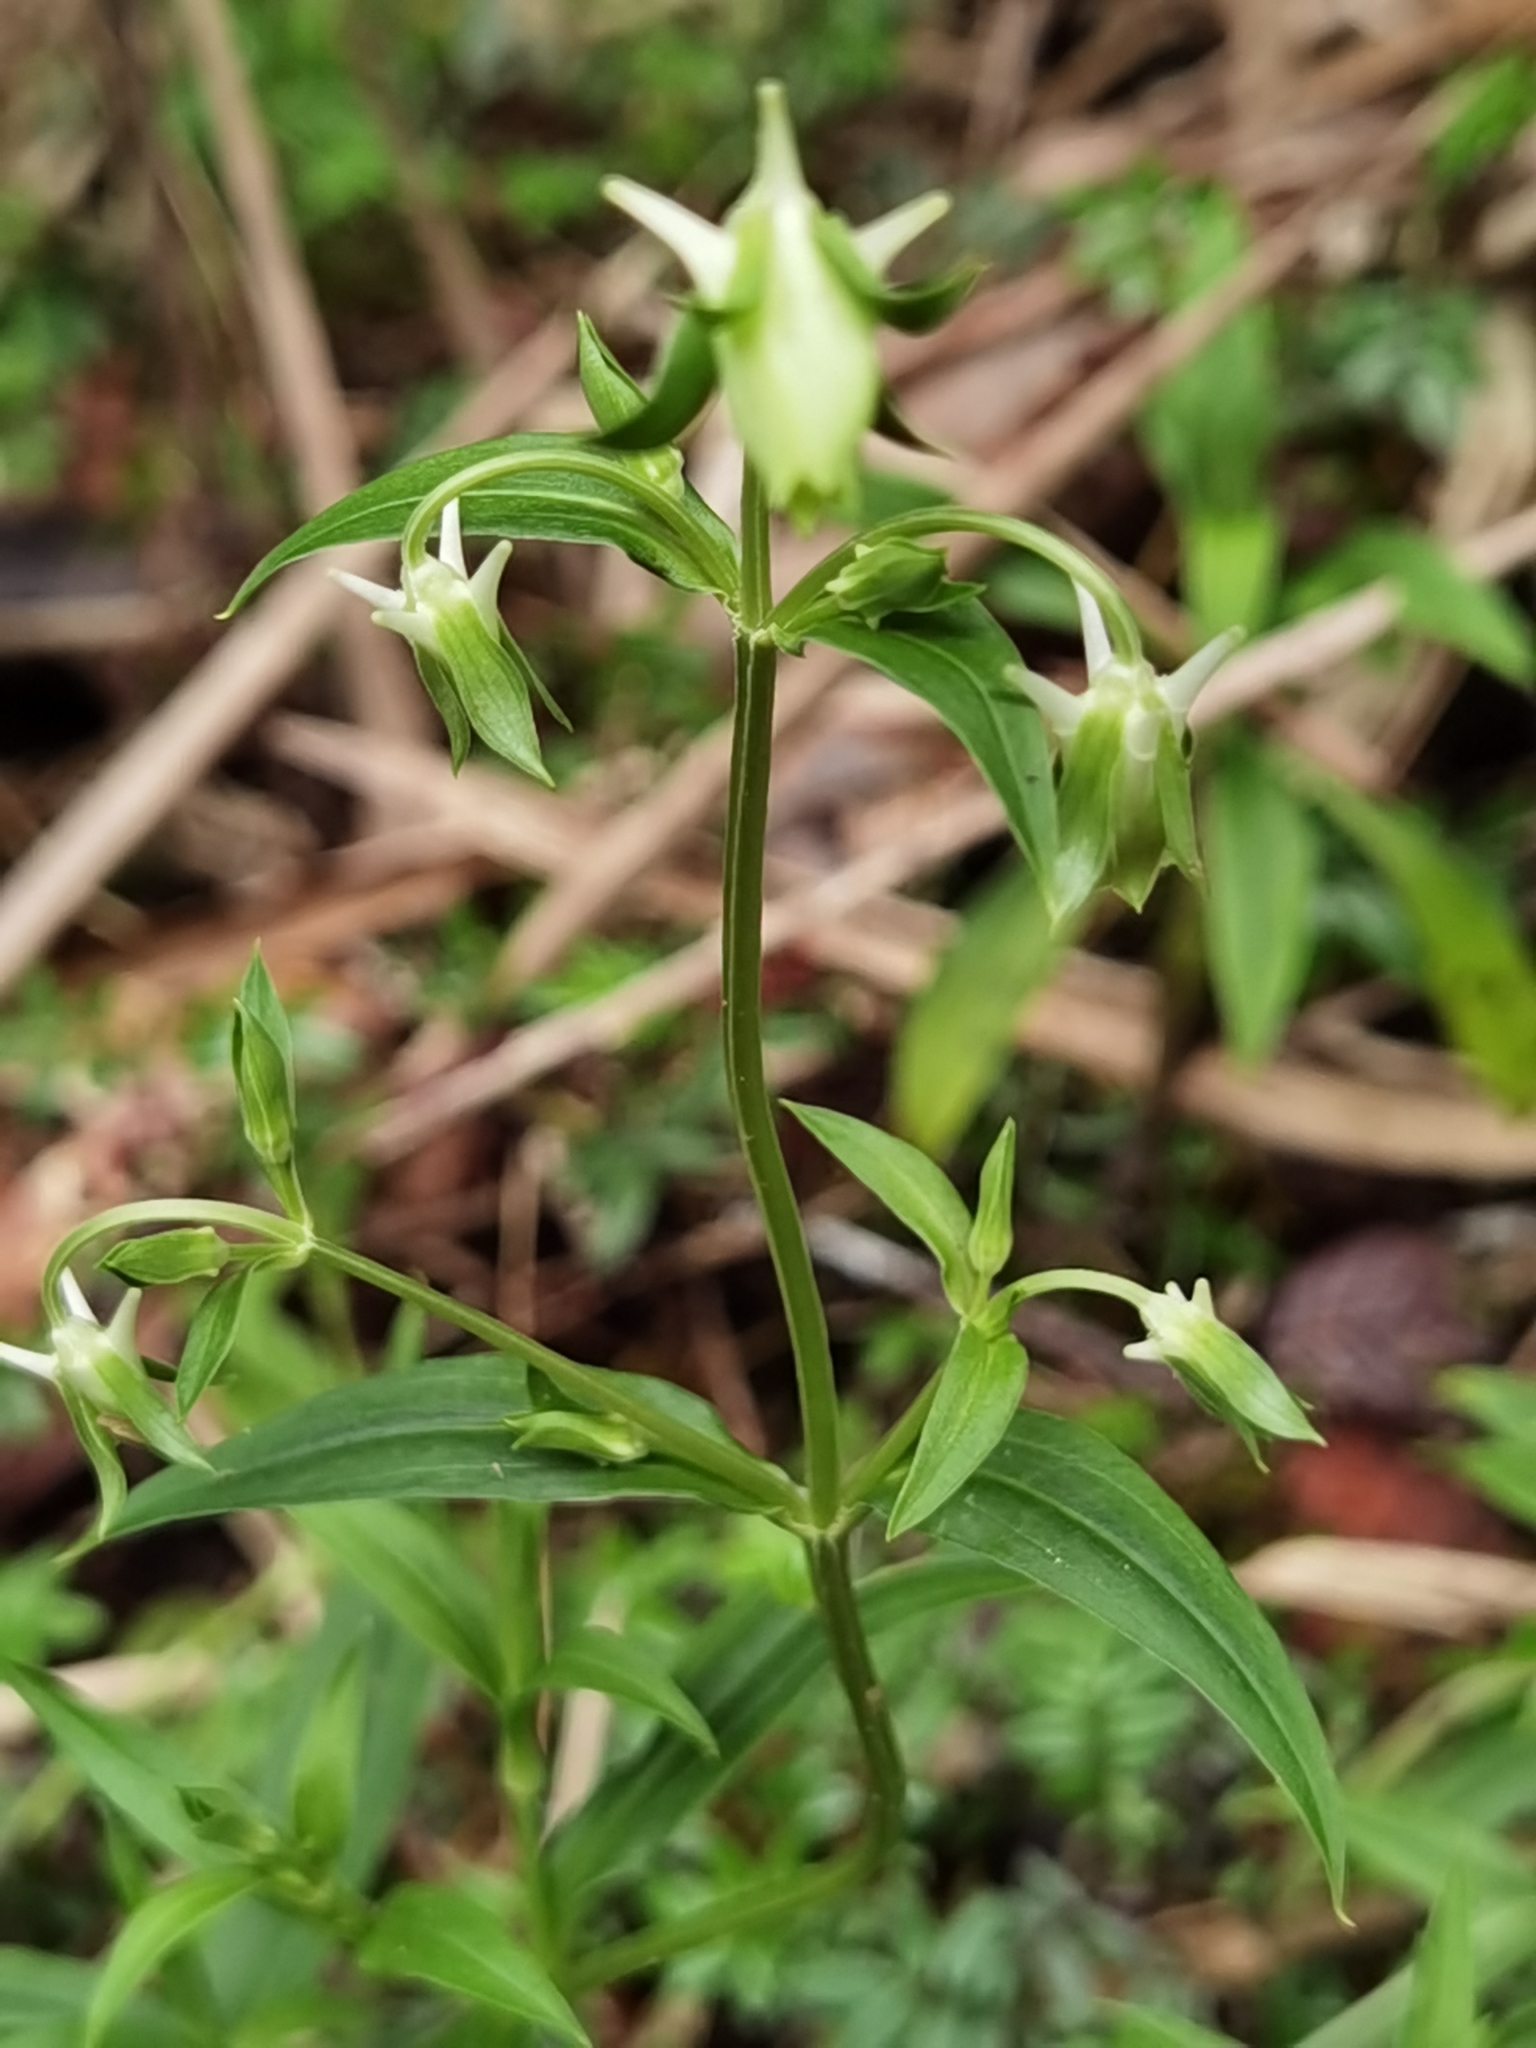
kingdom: Plantae
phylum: Tracheophyta
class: Magnoliopsida
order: Gentianales
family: Gentianaceae
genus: Halenia
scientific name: Halenia rhyacophila
